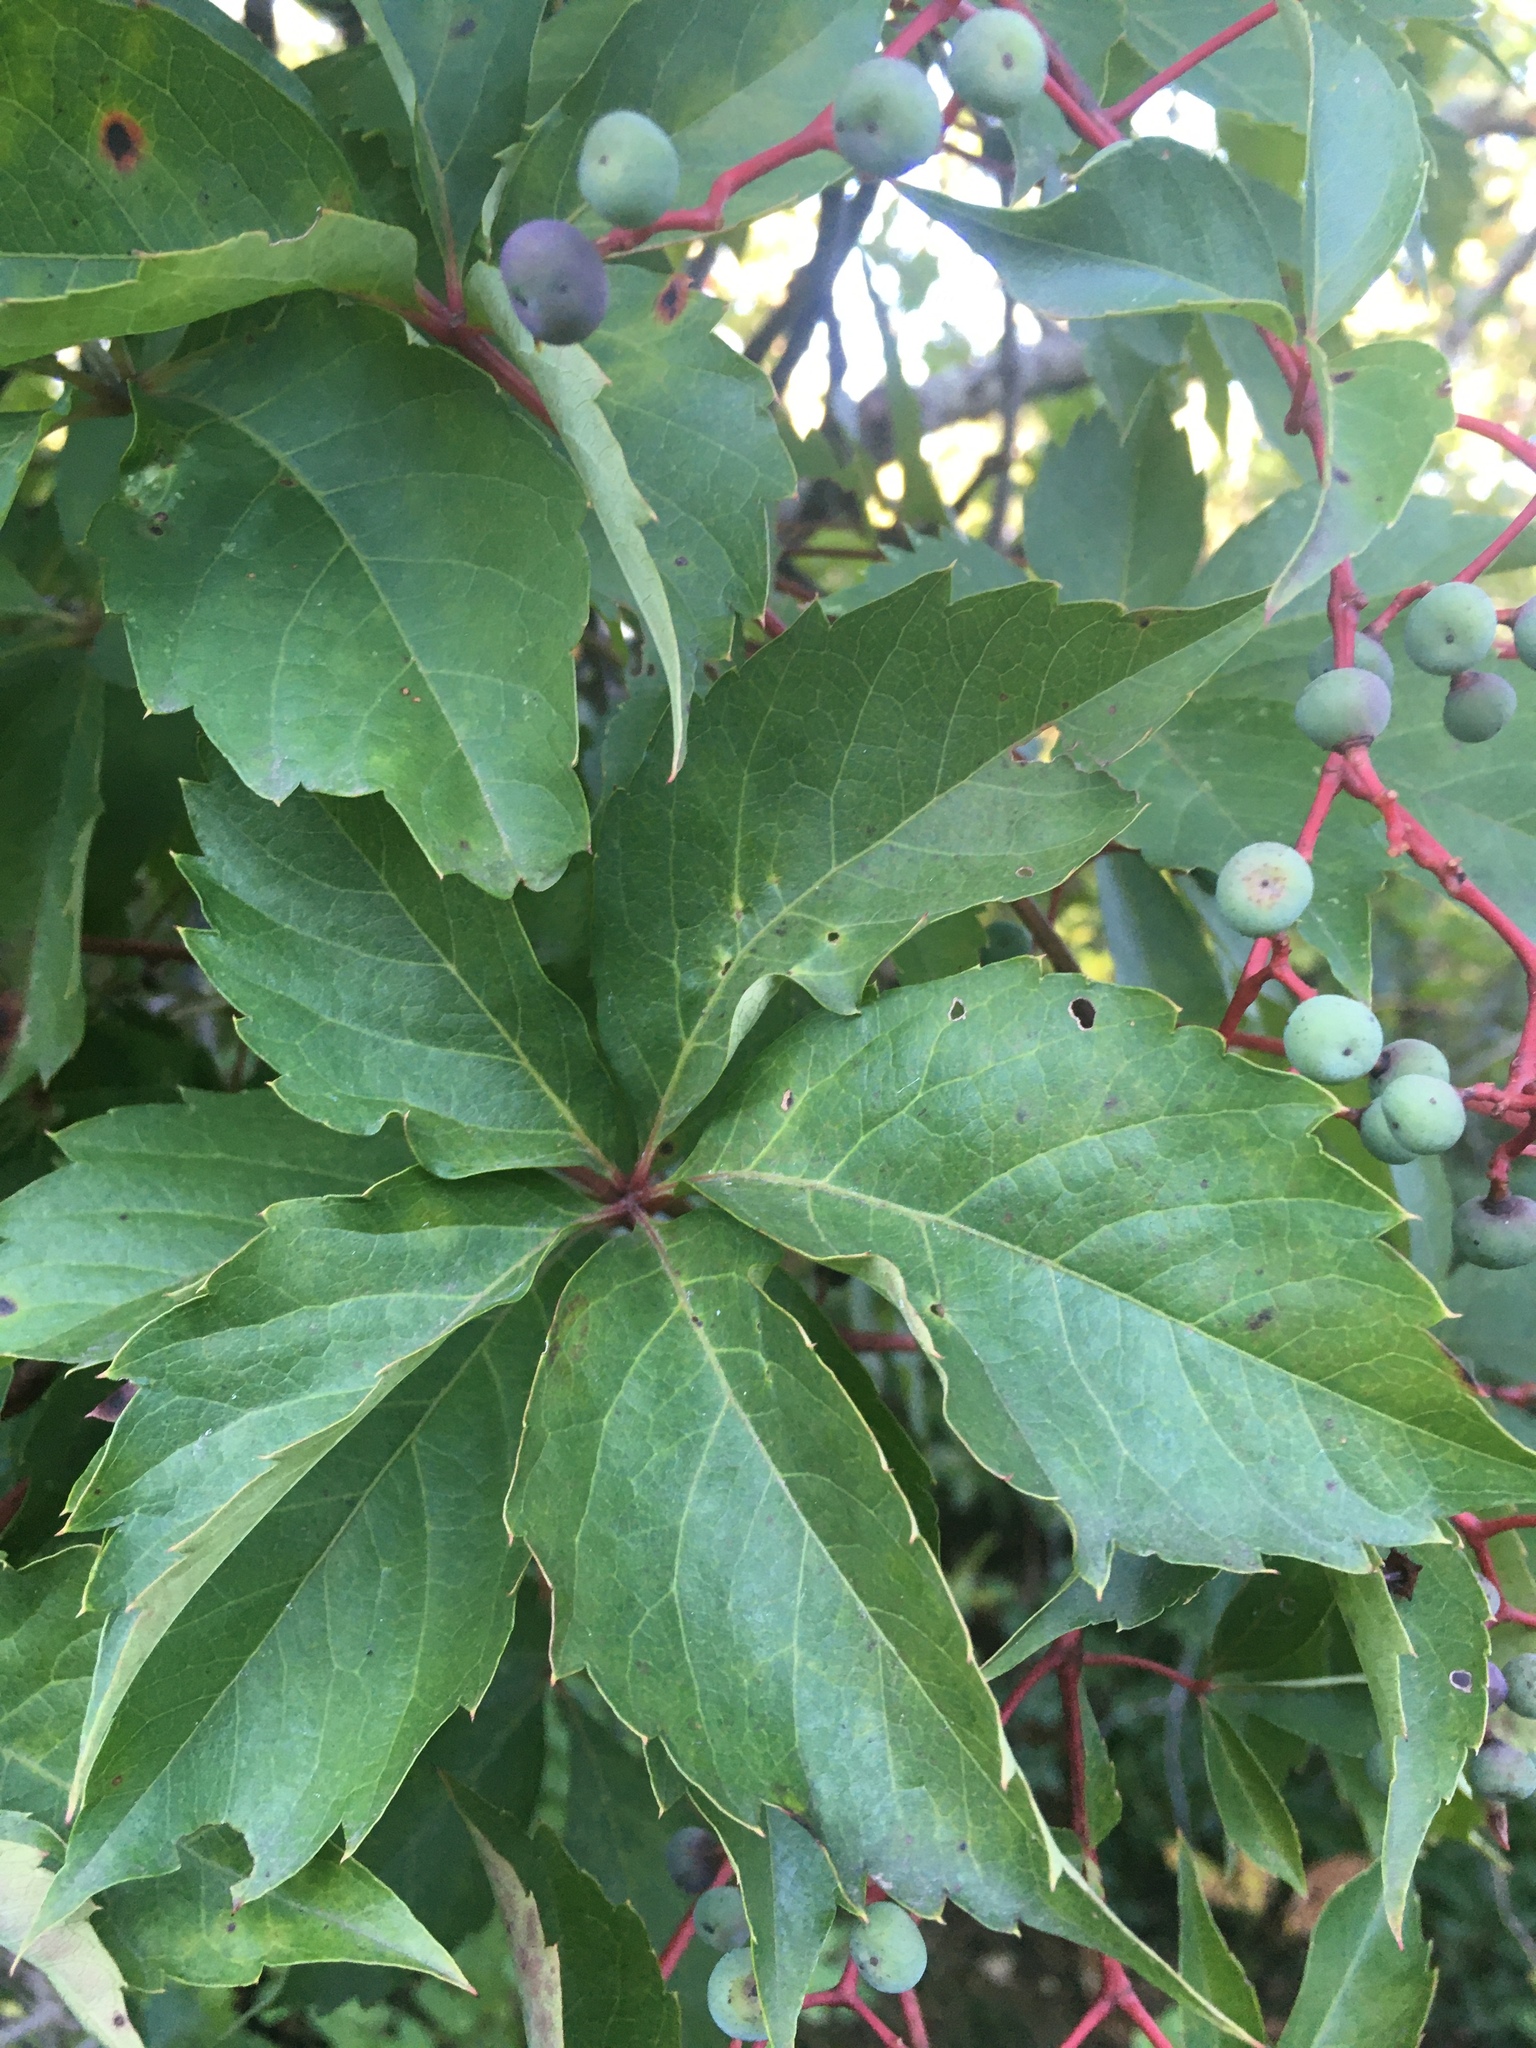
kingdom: Plantae
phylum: Tracheophyta
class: Magnoliopsida
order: Vitales
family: Vitaceae
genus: Parthenocissus
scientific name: Parthenocissus quinquefolia
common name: Virginia-creeper
